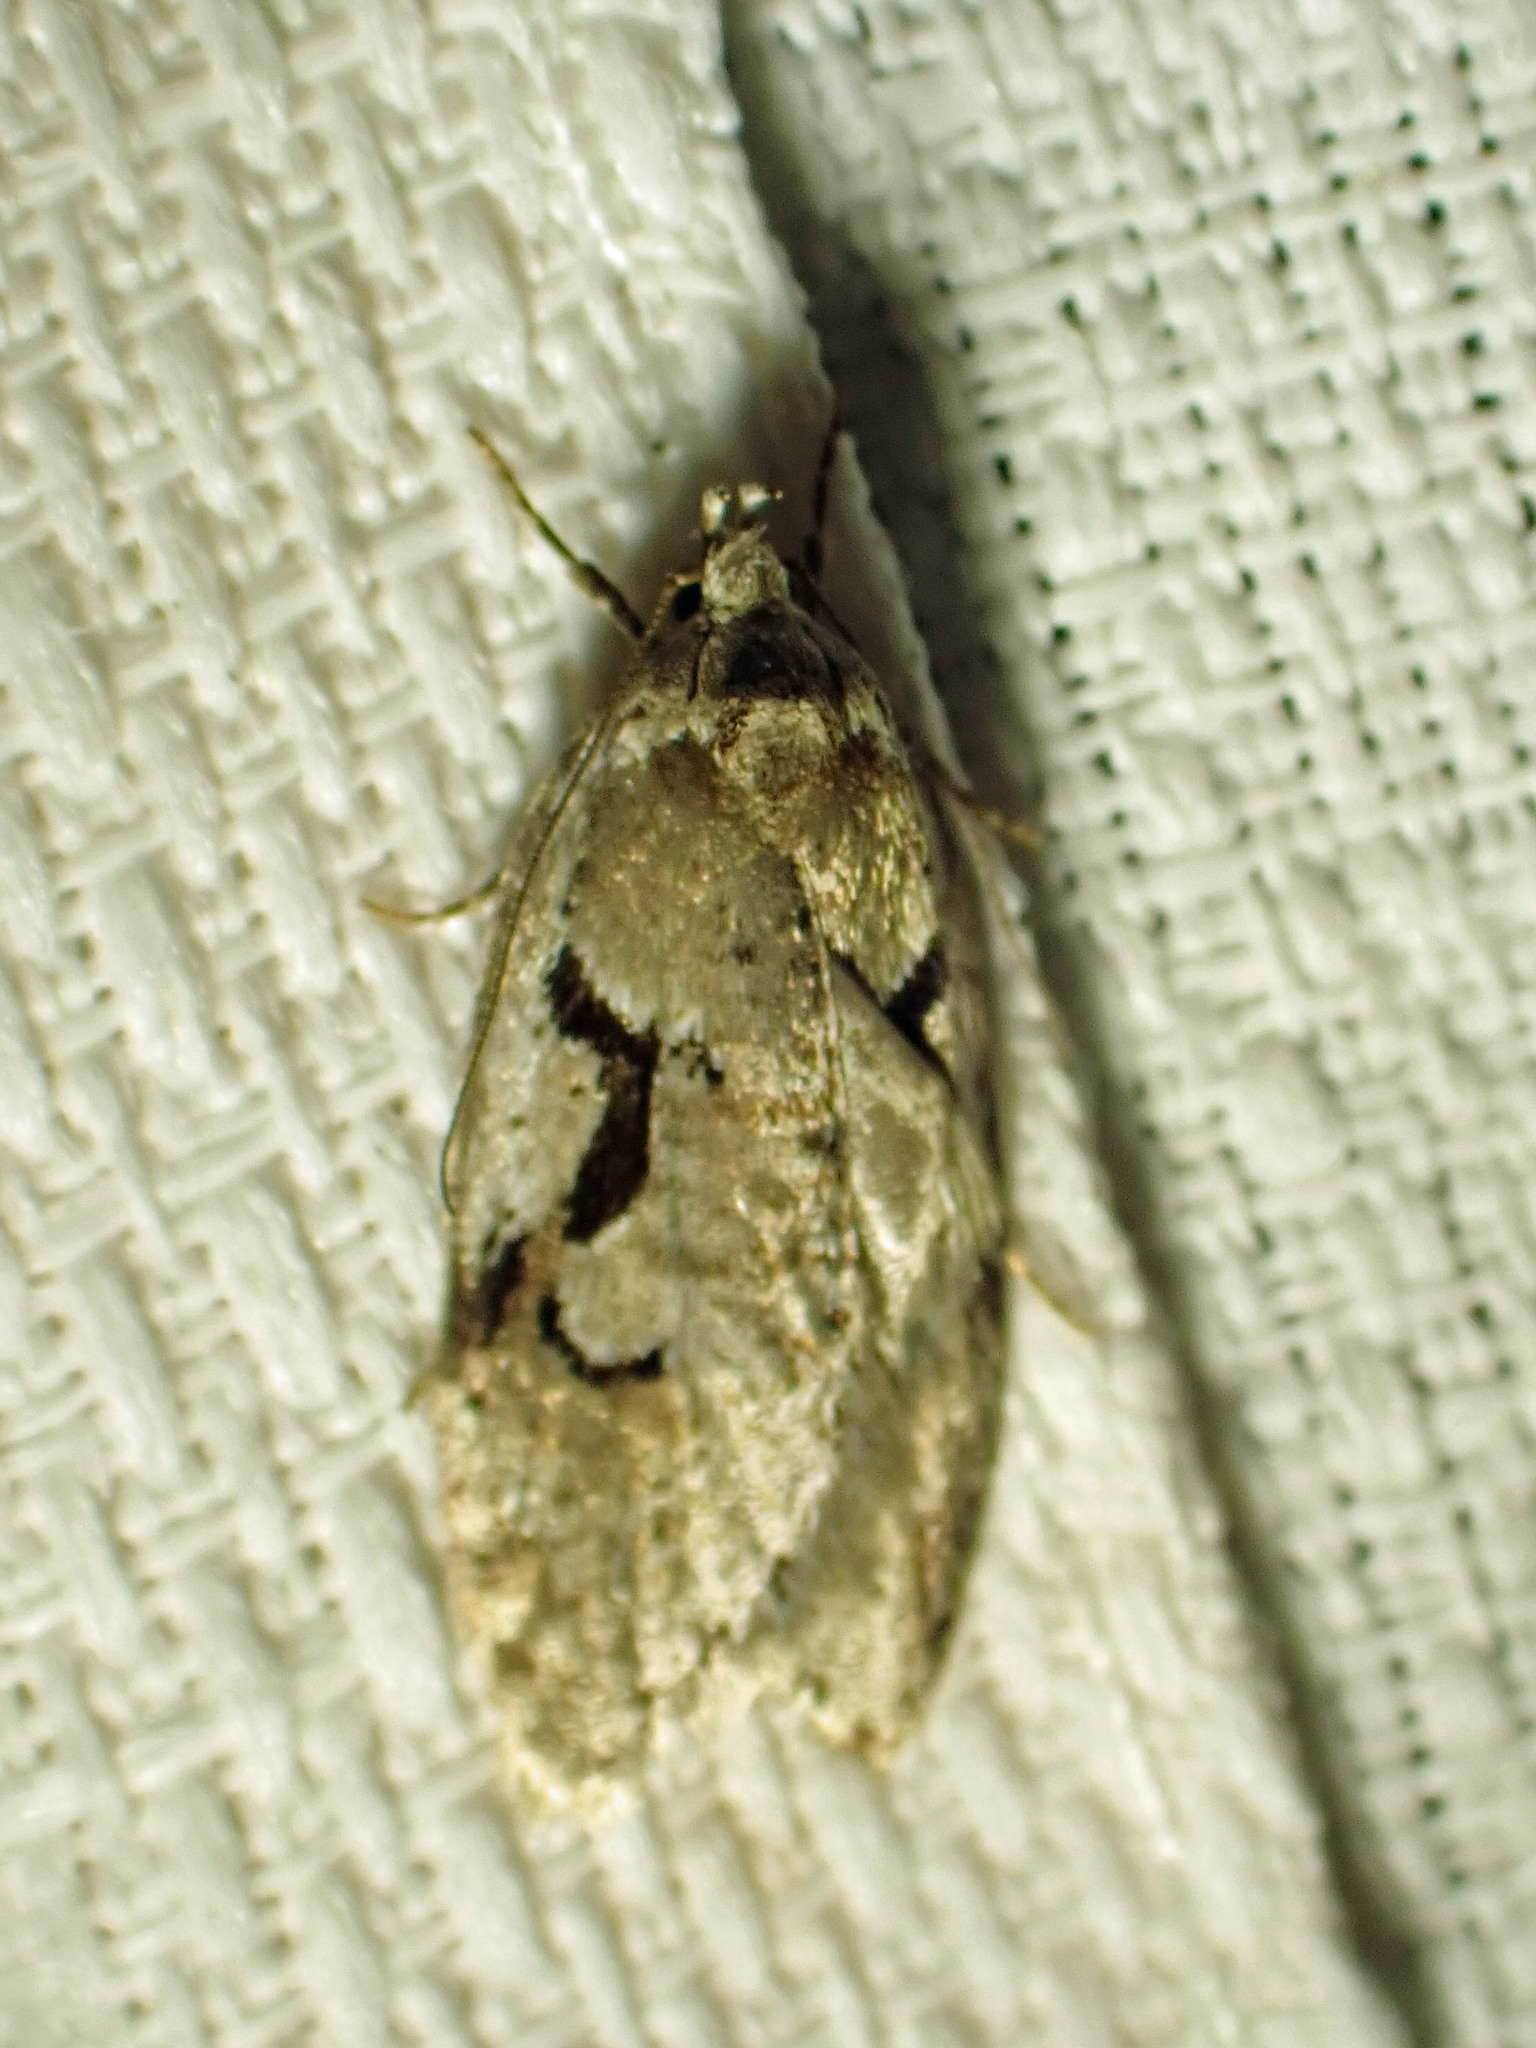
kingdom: Animalia
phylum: Arthropoda
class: Insecta
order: Lepidoptera
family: Depressariidae
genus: Semioscopis
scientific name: Semioscopis merriccella
